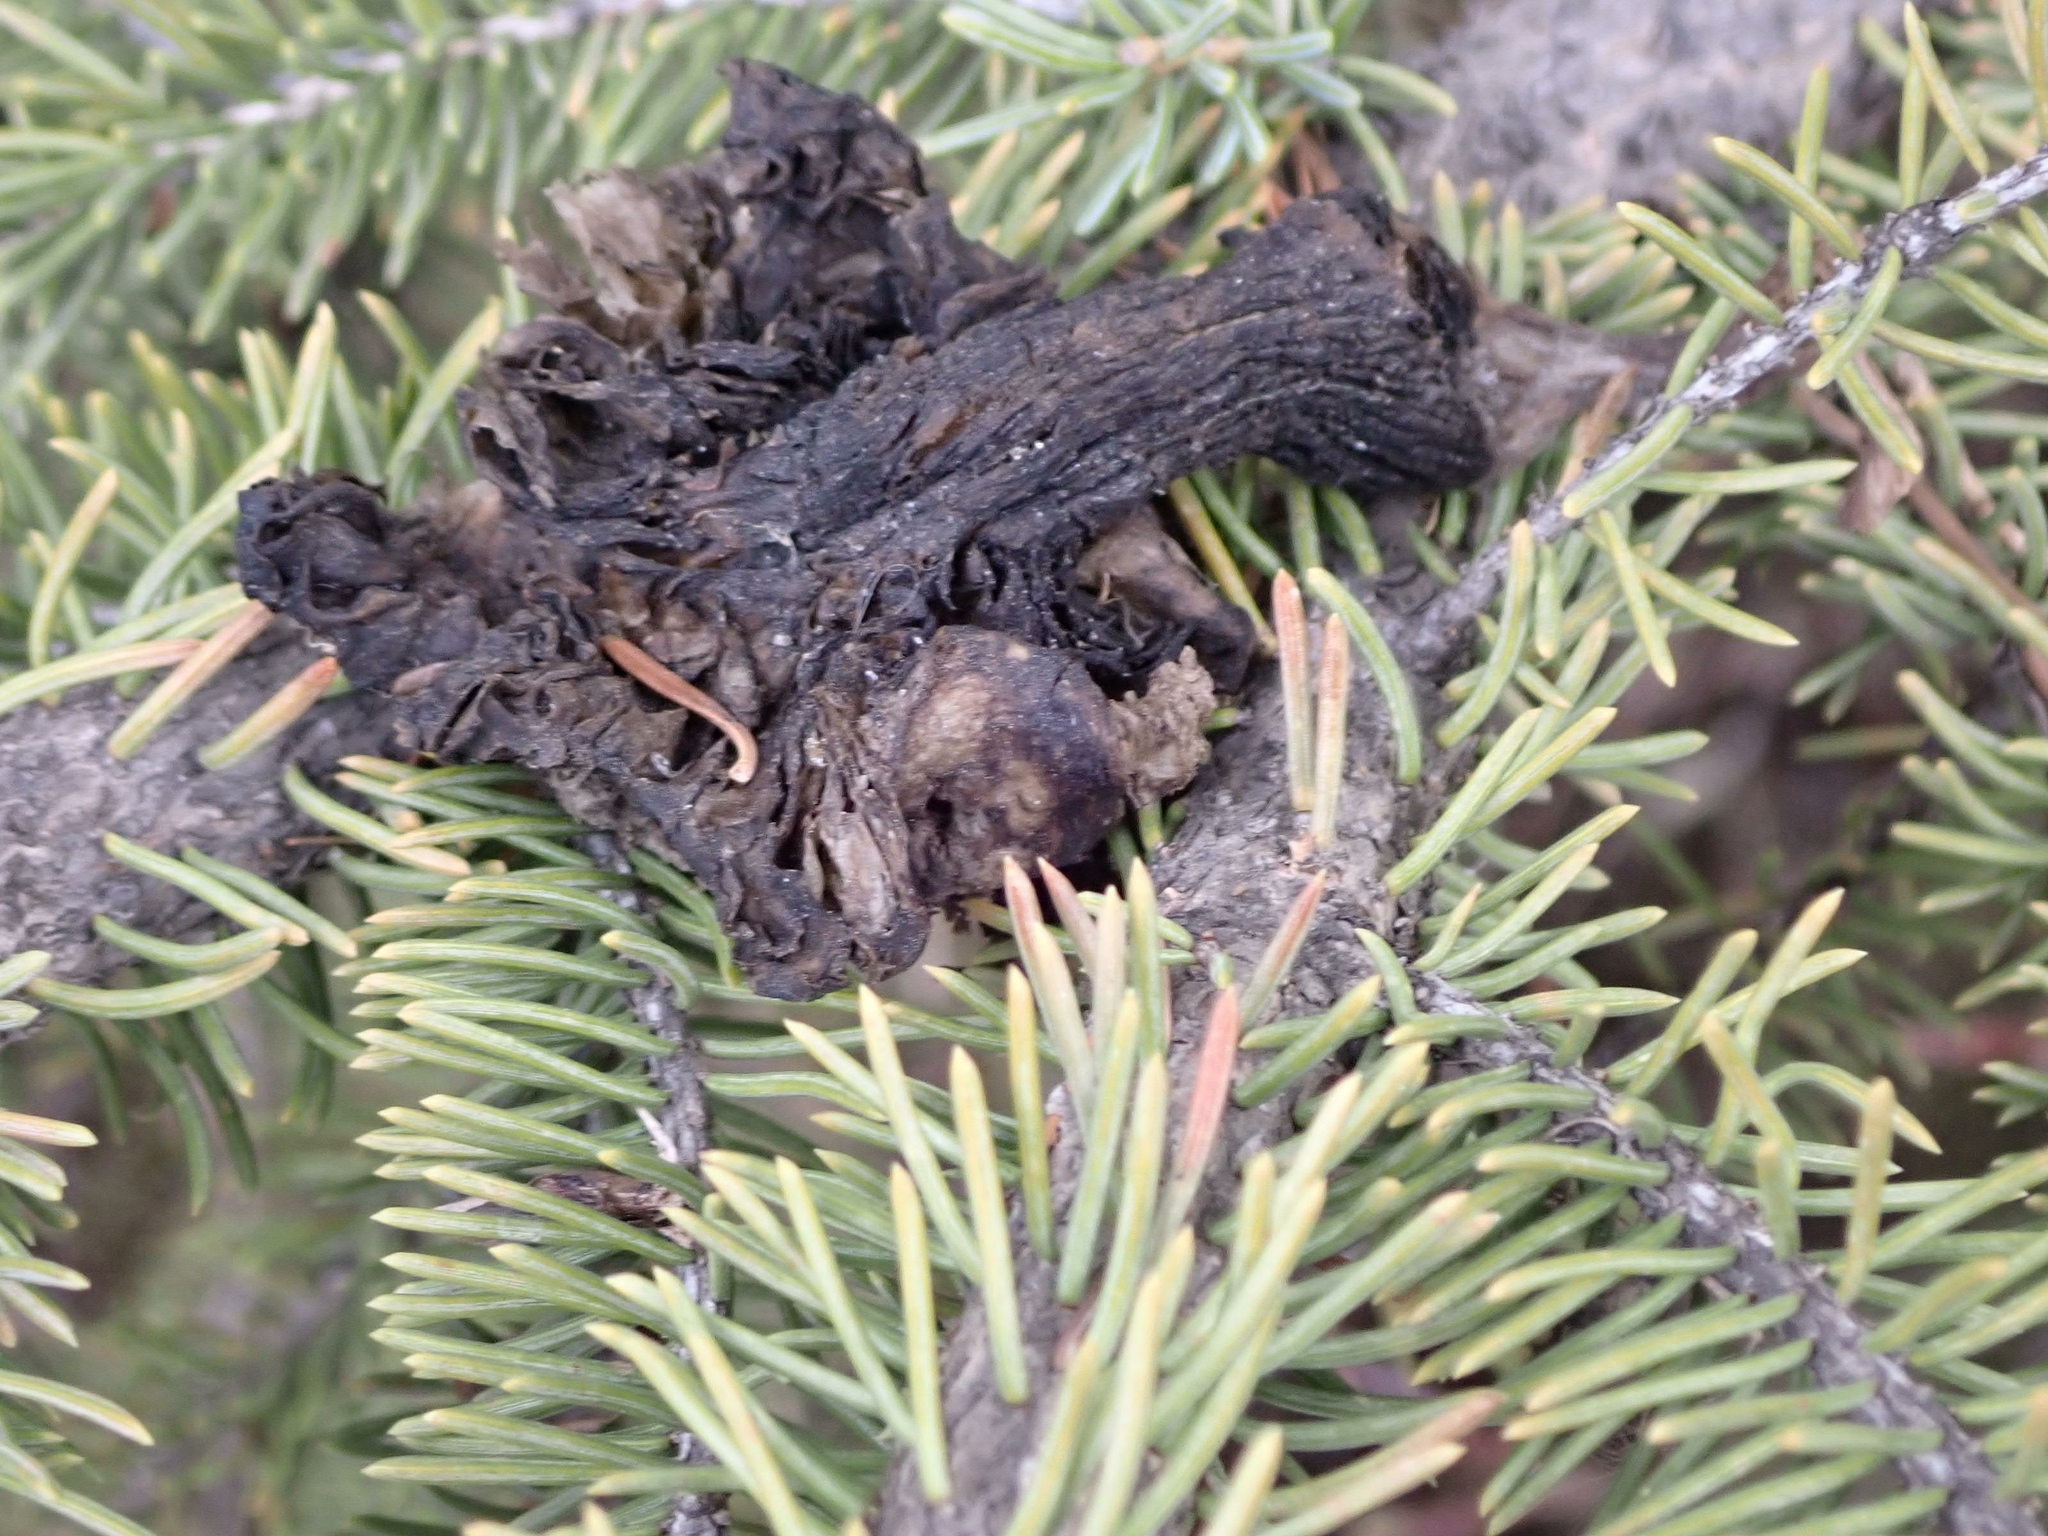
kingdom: Animalia
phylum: Chordata
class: Mammalia
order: Rodentia
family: Sciuridae
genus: Tamiasciurus
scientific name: Tamiasciurus hudsonicus
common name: Red squirrel
